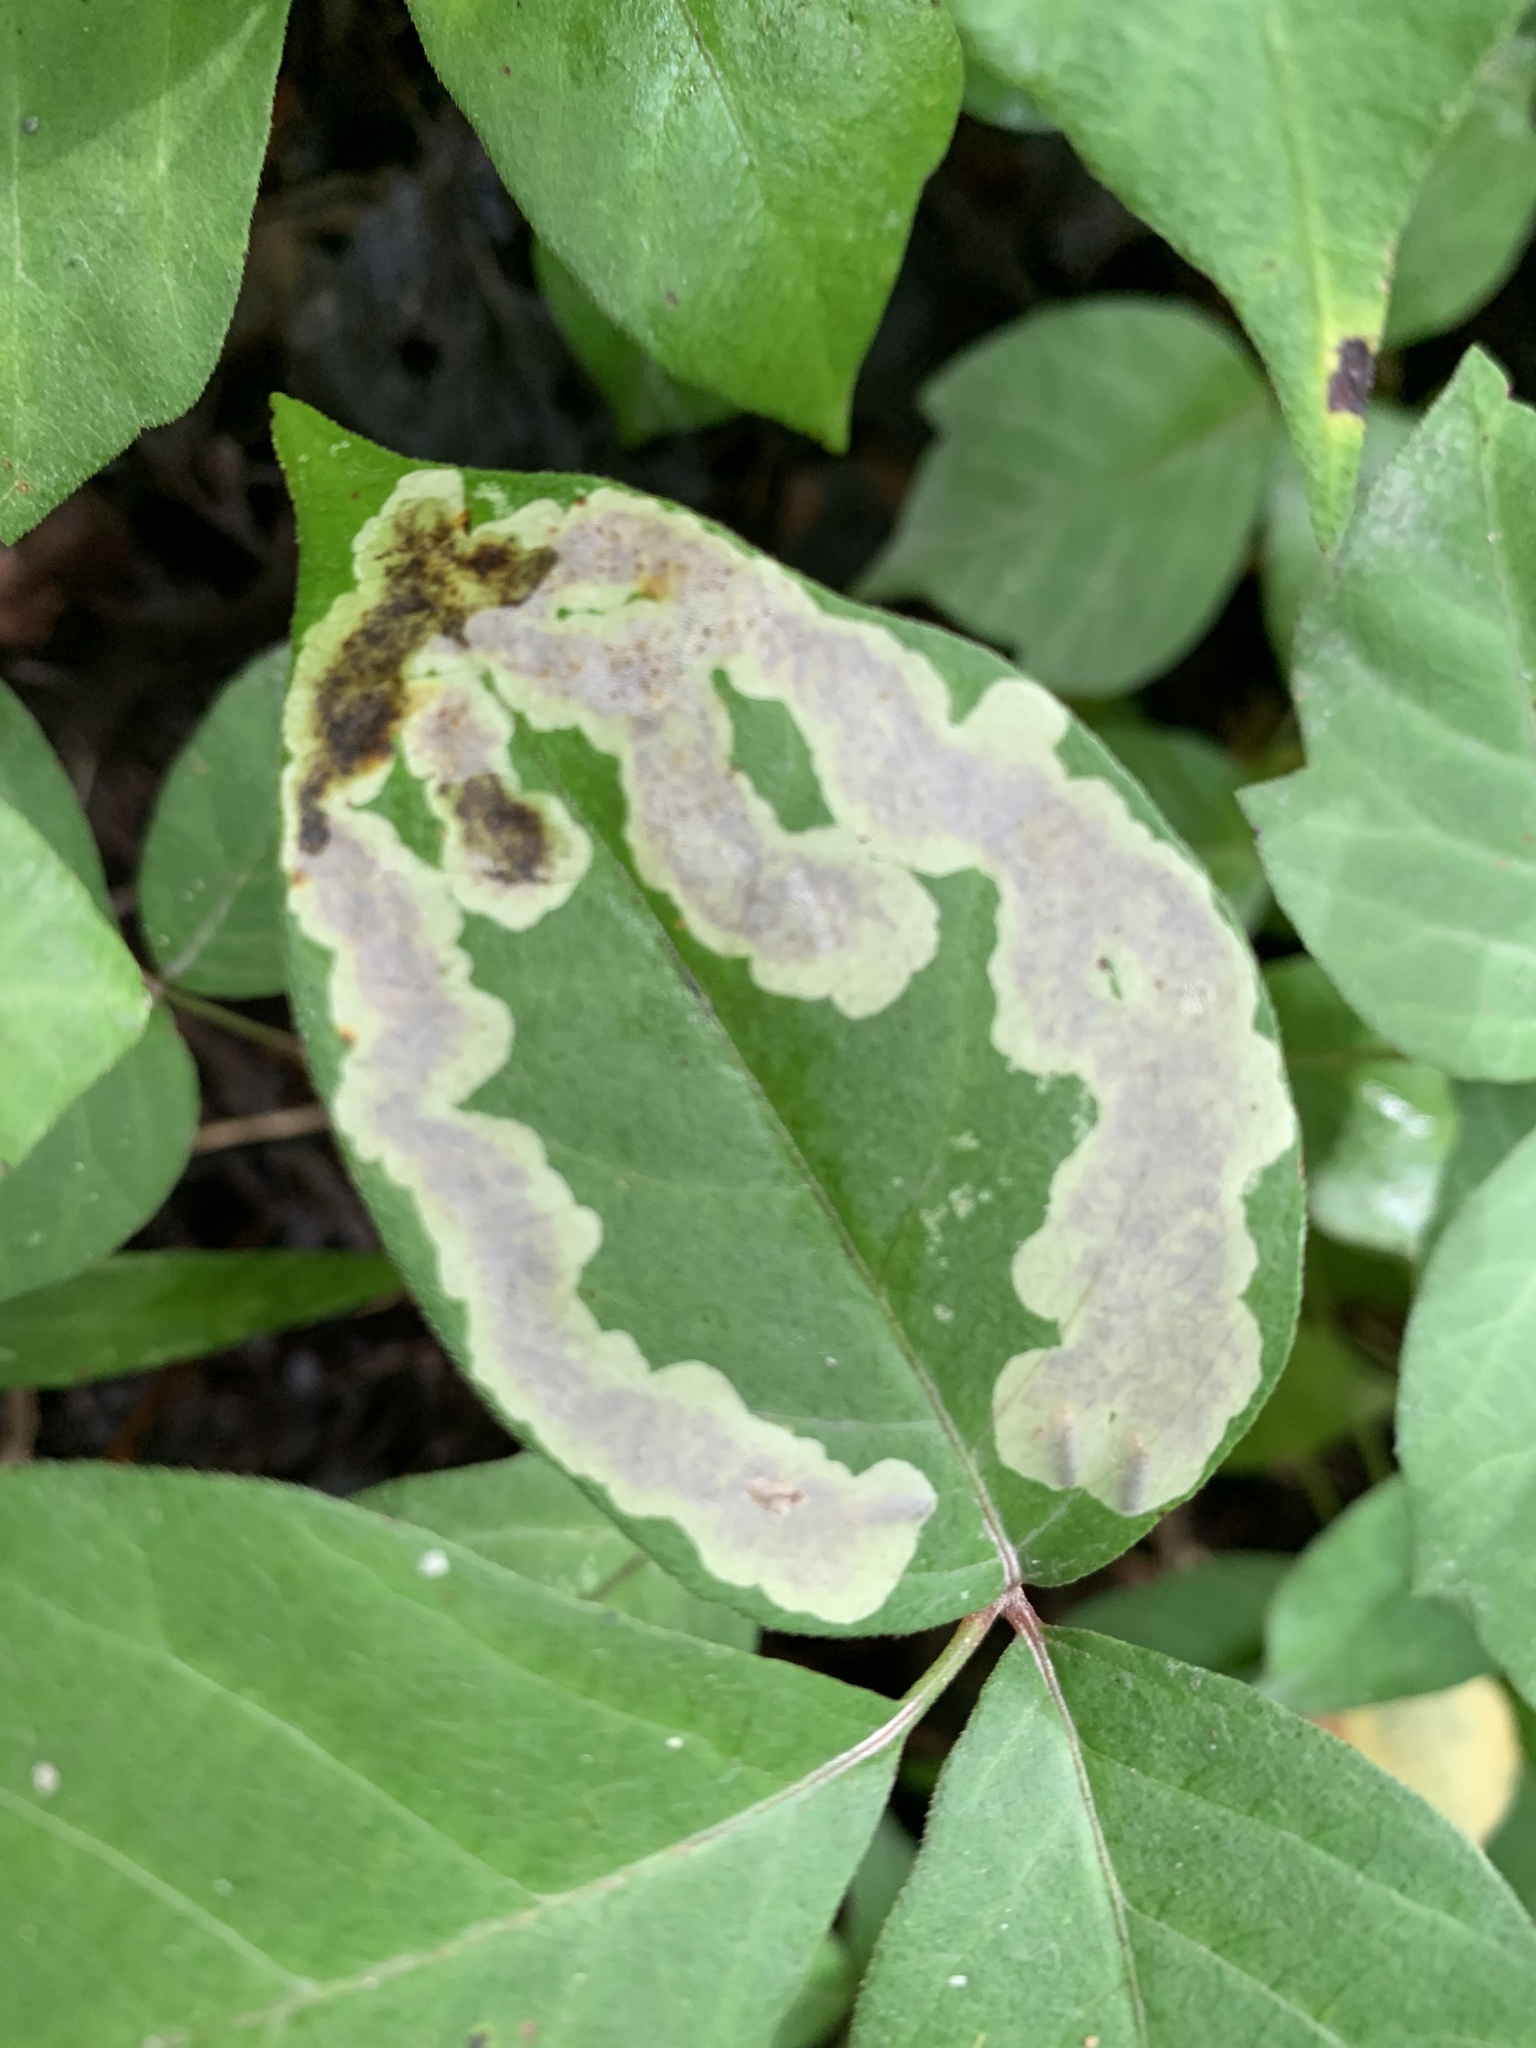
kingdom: Animalia
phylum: Arthropoda
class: Insecta
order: Lepidoptera
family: Gracillariidae
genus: Cameraria
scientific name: Cameraria guttifinitella
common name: Poison ivy leaf-miner moth
